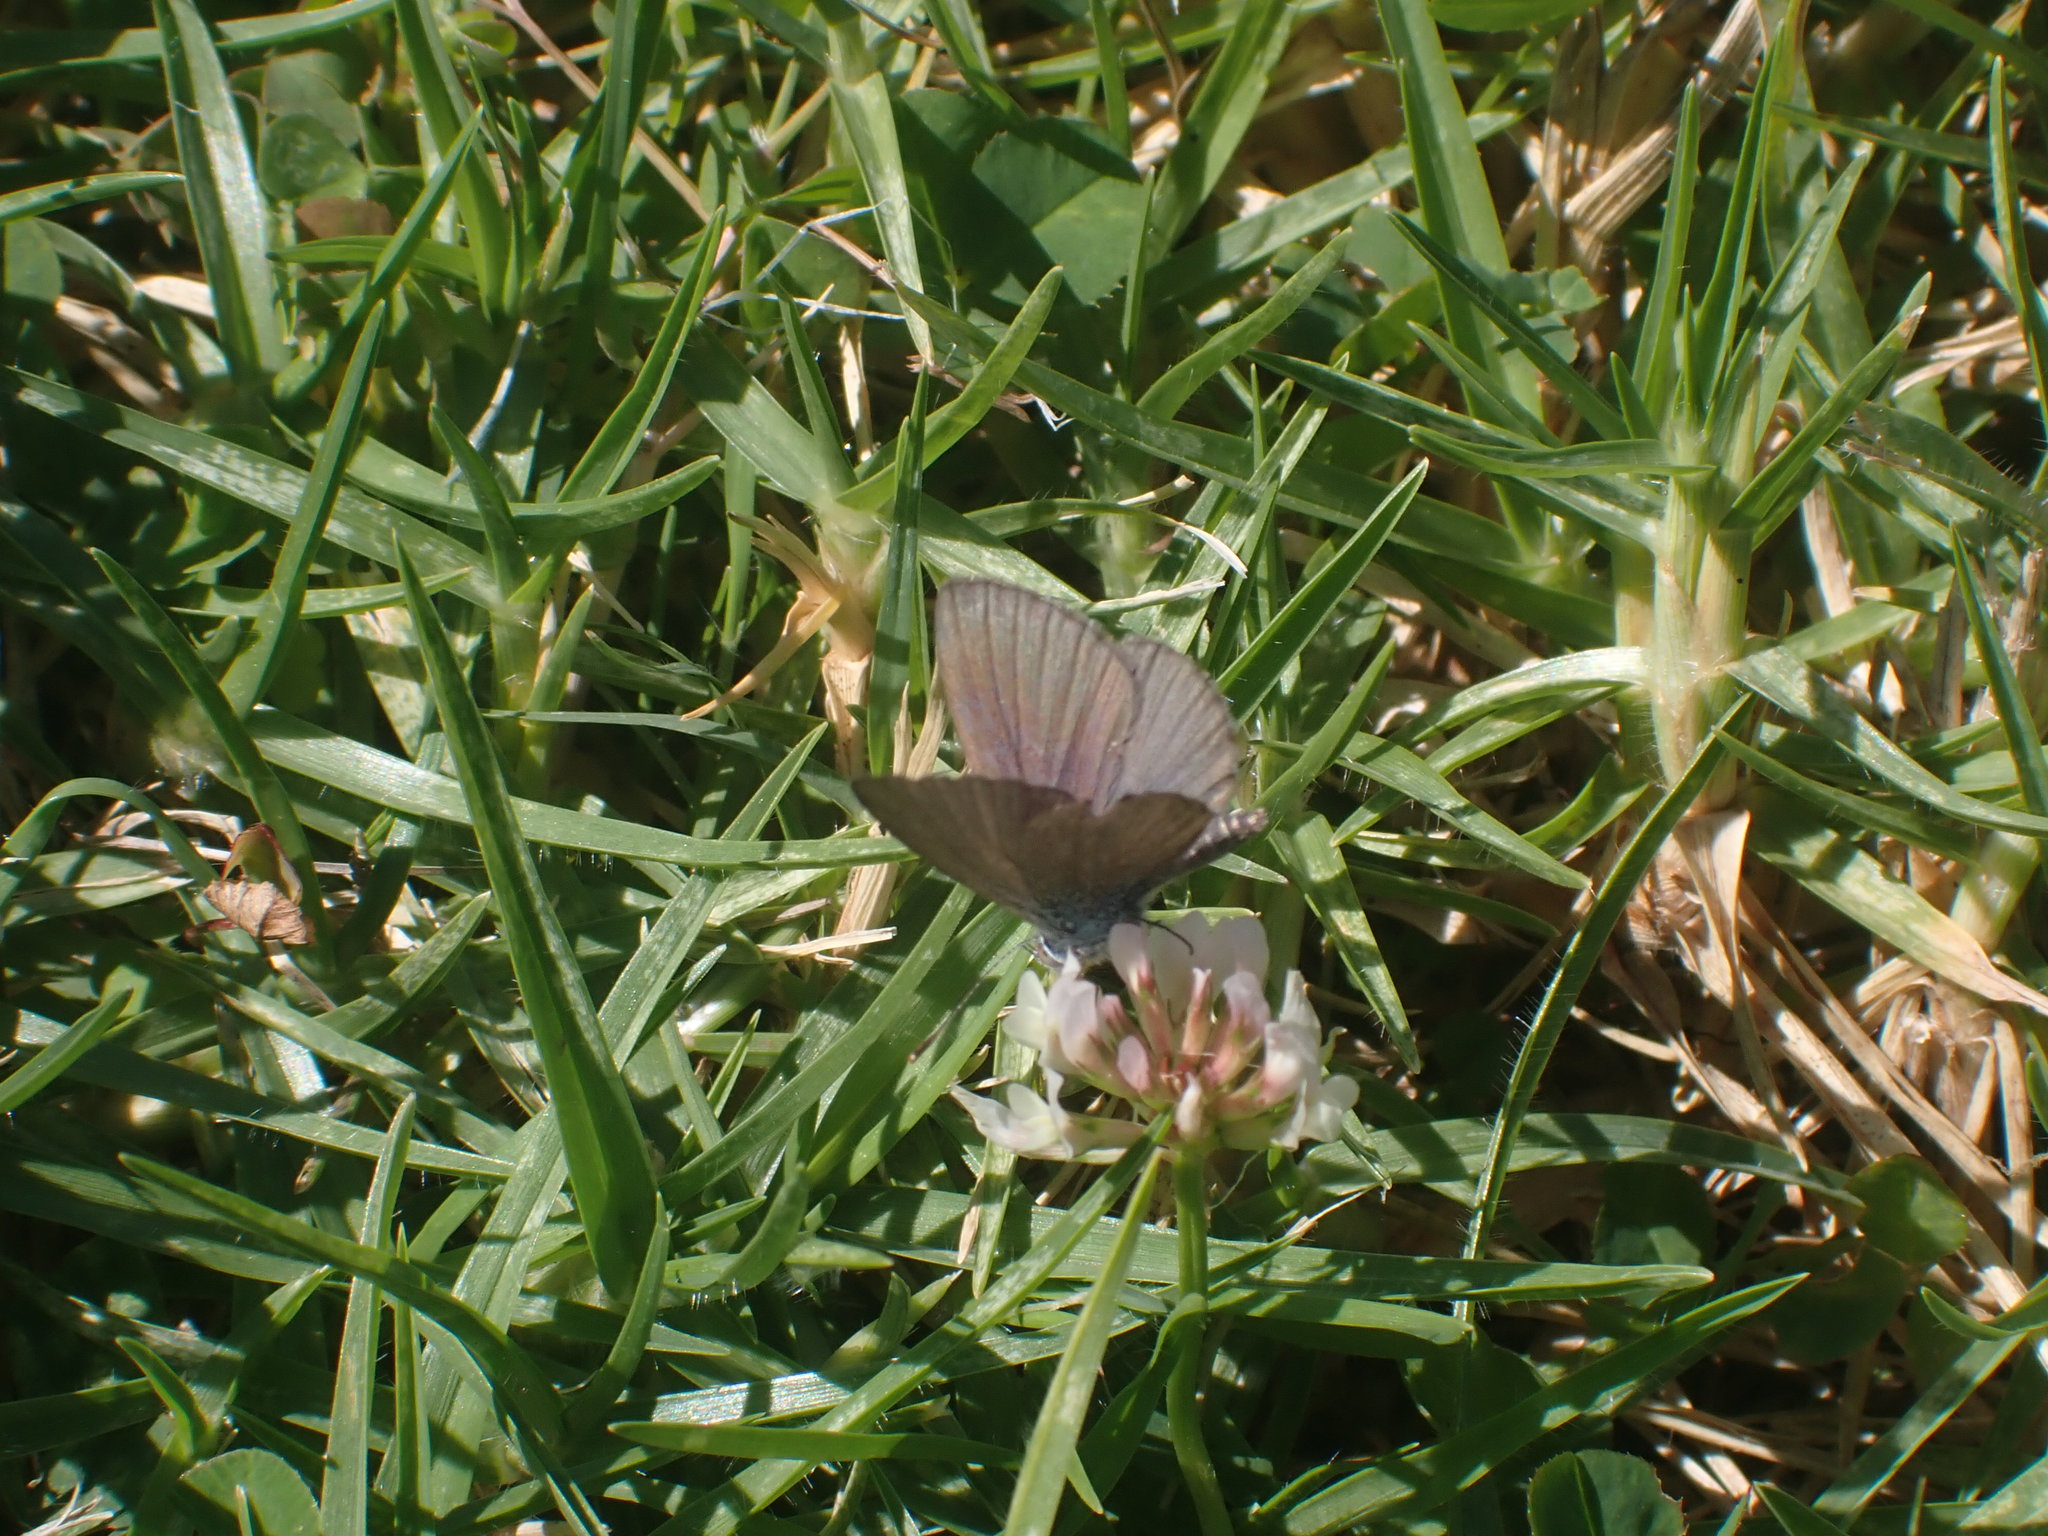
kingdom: Animalia
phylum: Arthropoda
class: Insecta
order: Lepidoptera
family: Lycaenidae
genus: Zizina
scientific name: Zizina labradus
